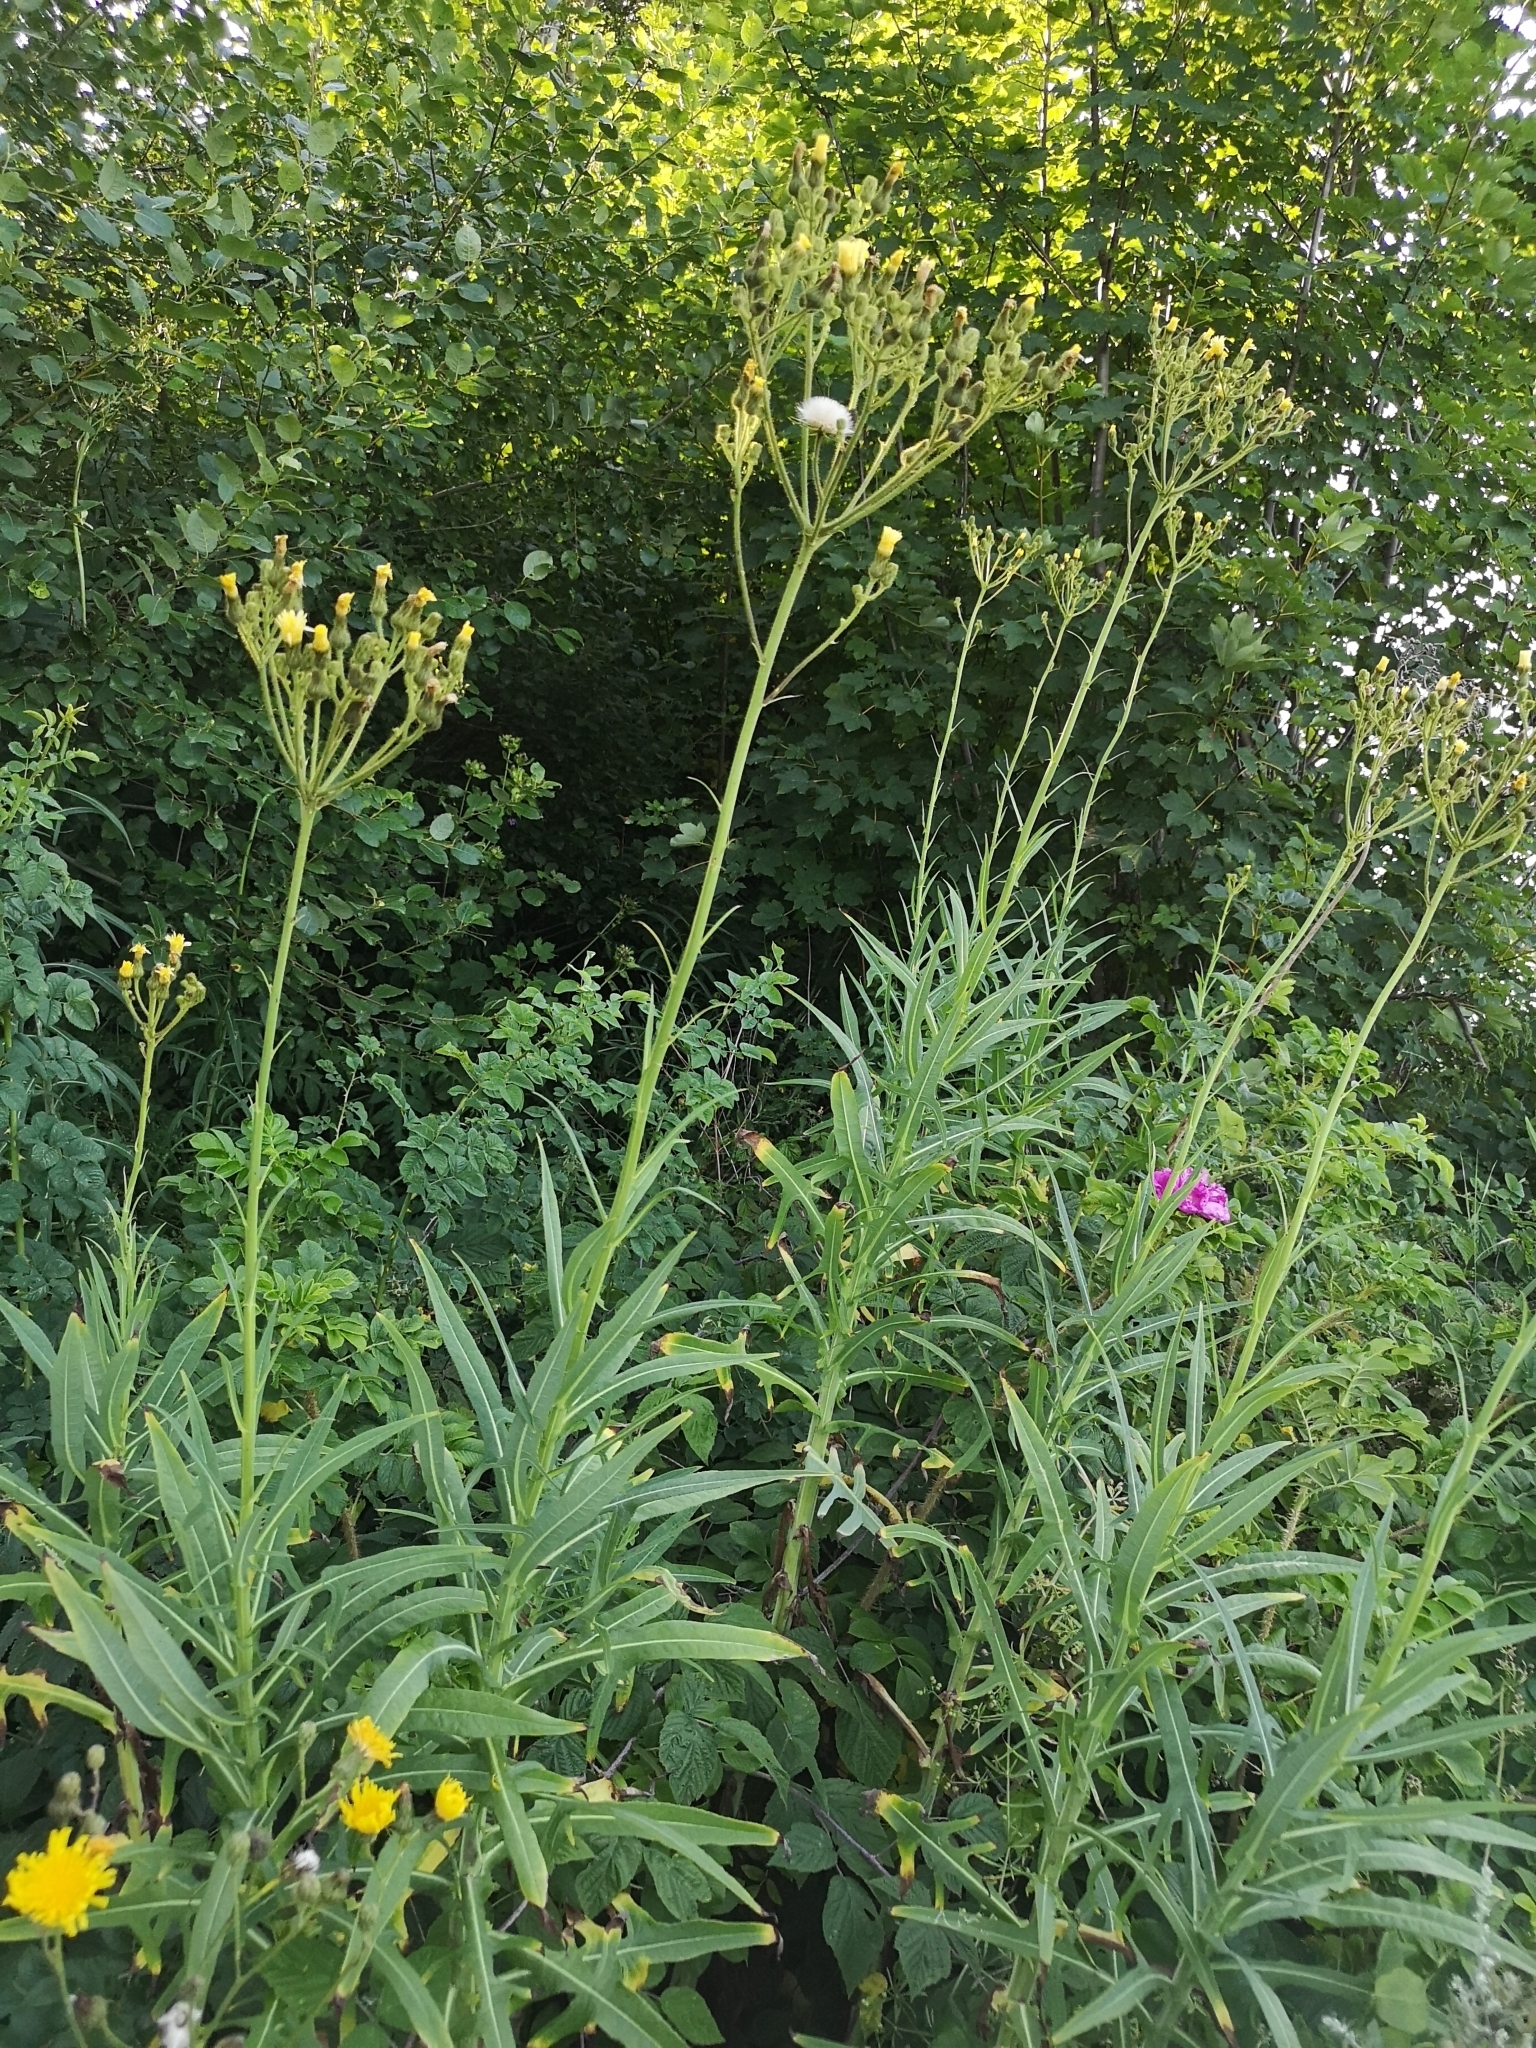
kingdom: Plantae
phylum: Tracheophyta
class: Magnoliopsida
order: Asterales
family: Asteraceae
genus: Sonchus
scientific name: Sonchus palustris
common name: Marsh sow-thistle
